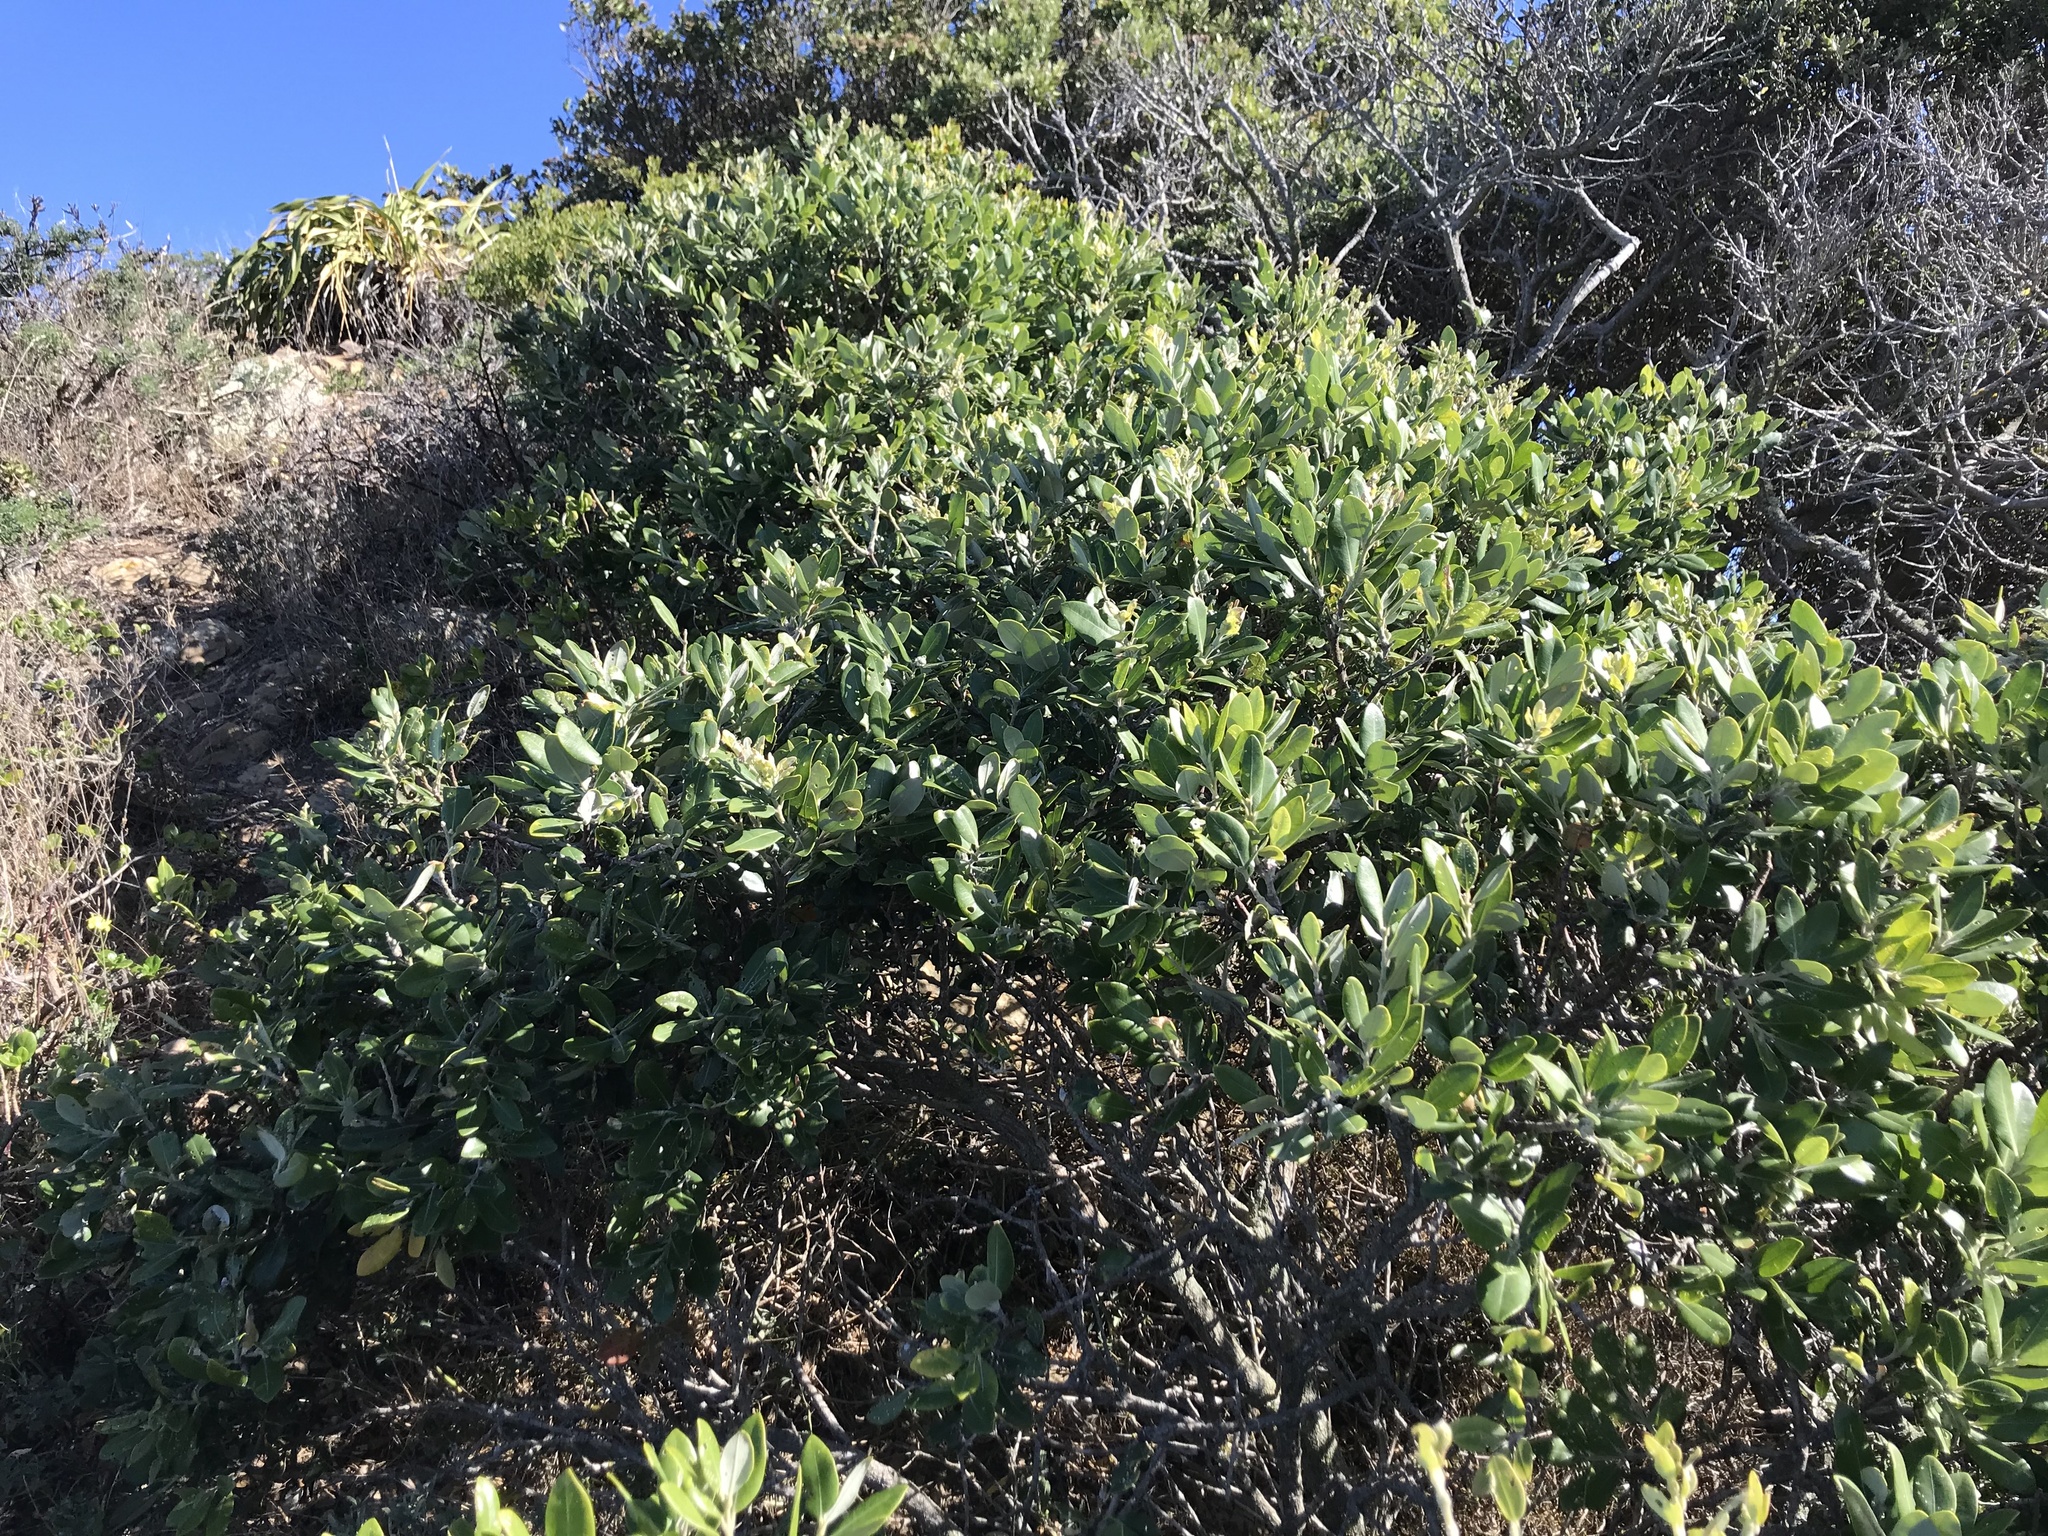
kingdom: Plantae
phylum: Tracheophyta
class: Magnoliopsida
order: Myrtales
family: Myrtaceae
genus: Metrosideros
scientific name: Metrosideros excelsa
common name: New zealand christmastree
